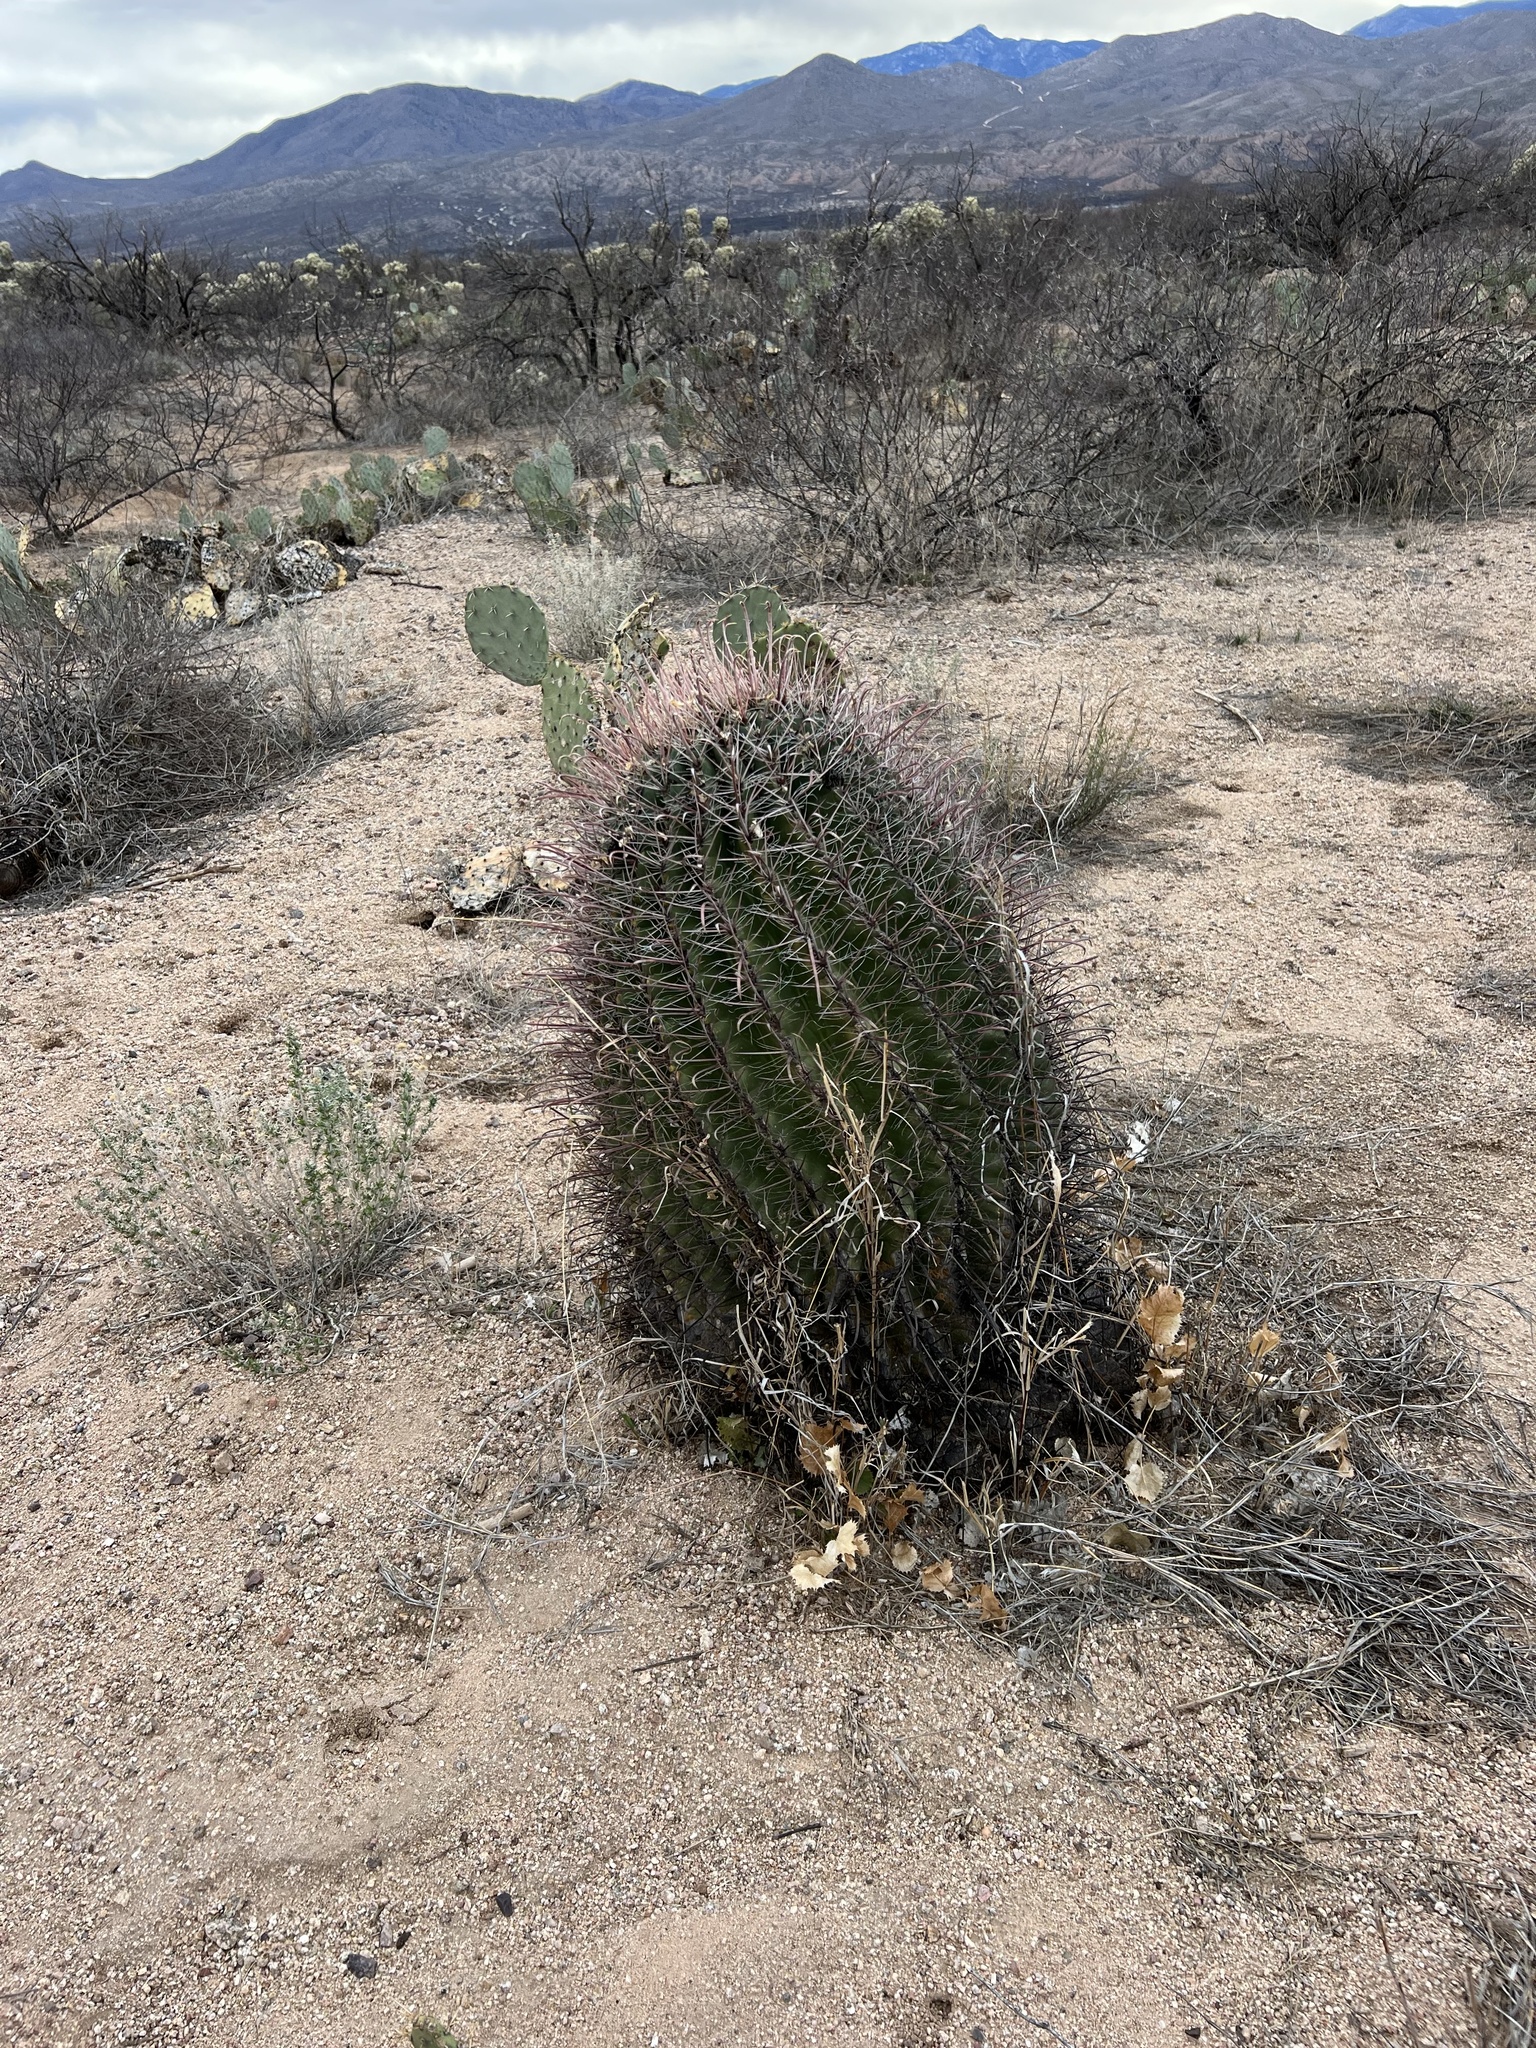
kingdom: Plantae
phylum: Tracheophyta
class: Magnoliopsida
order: Caryophyllales
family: Cactaceae
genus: Ferocactus
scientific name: Ferocactus wislizeni
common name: Candy barrel cactus
